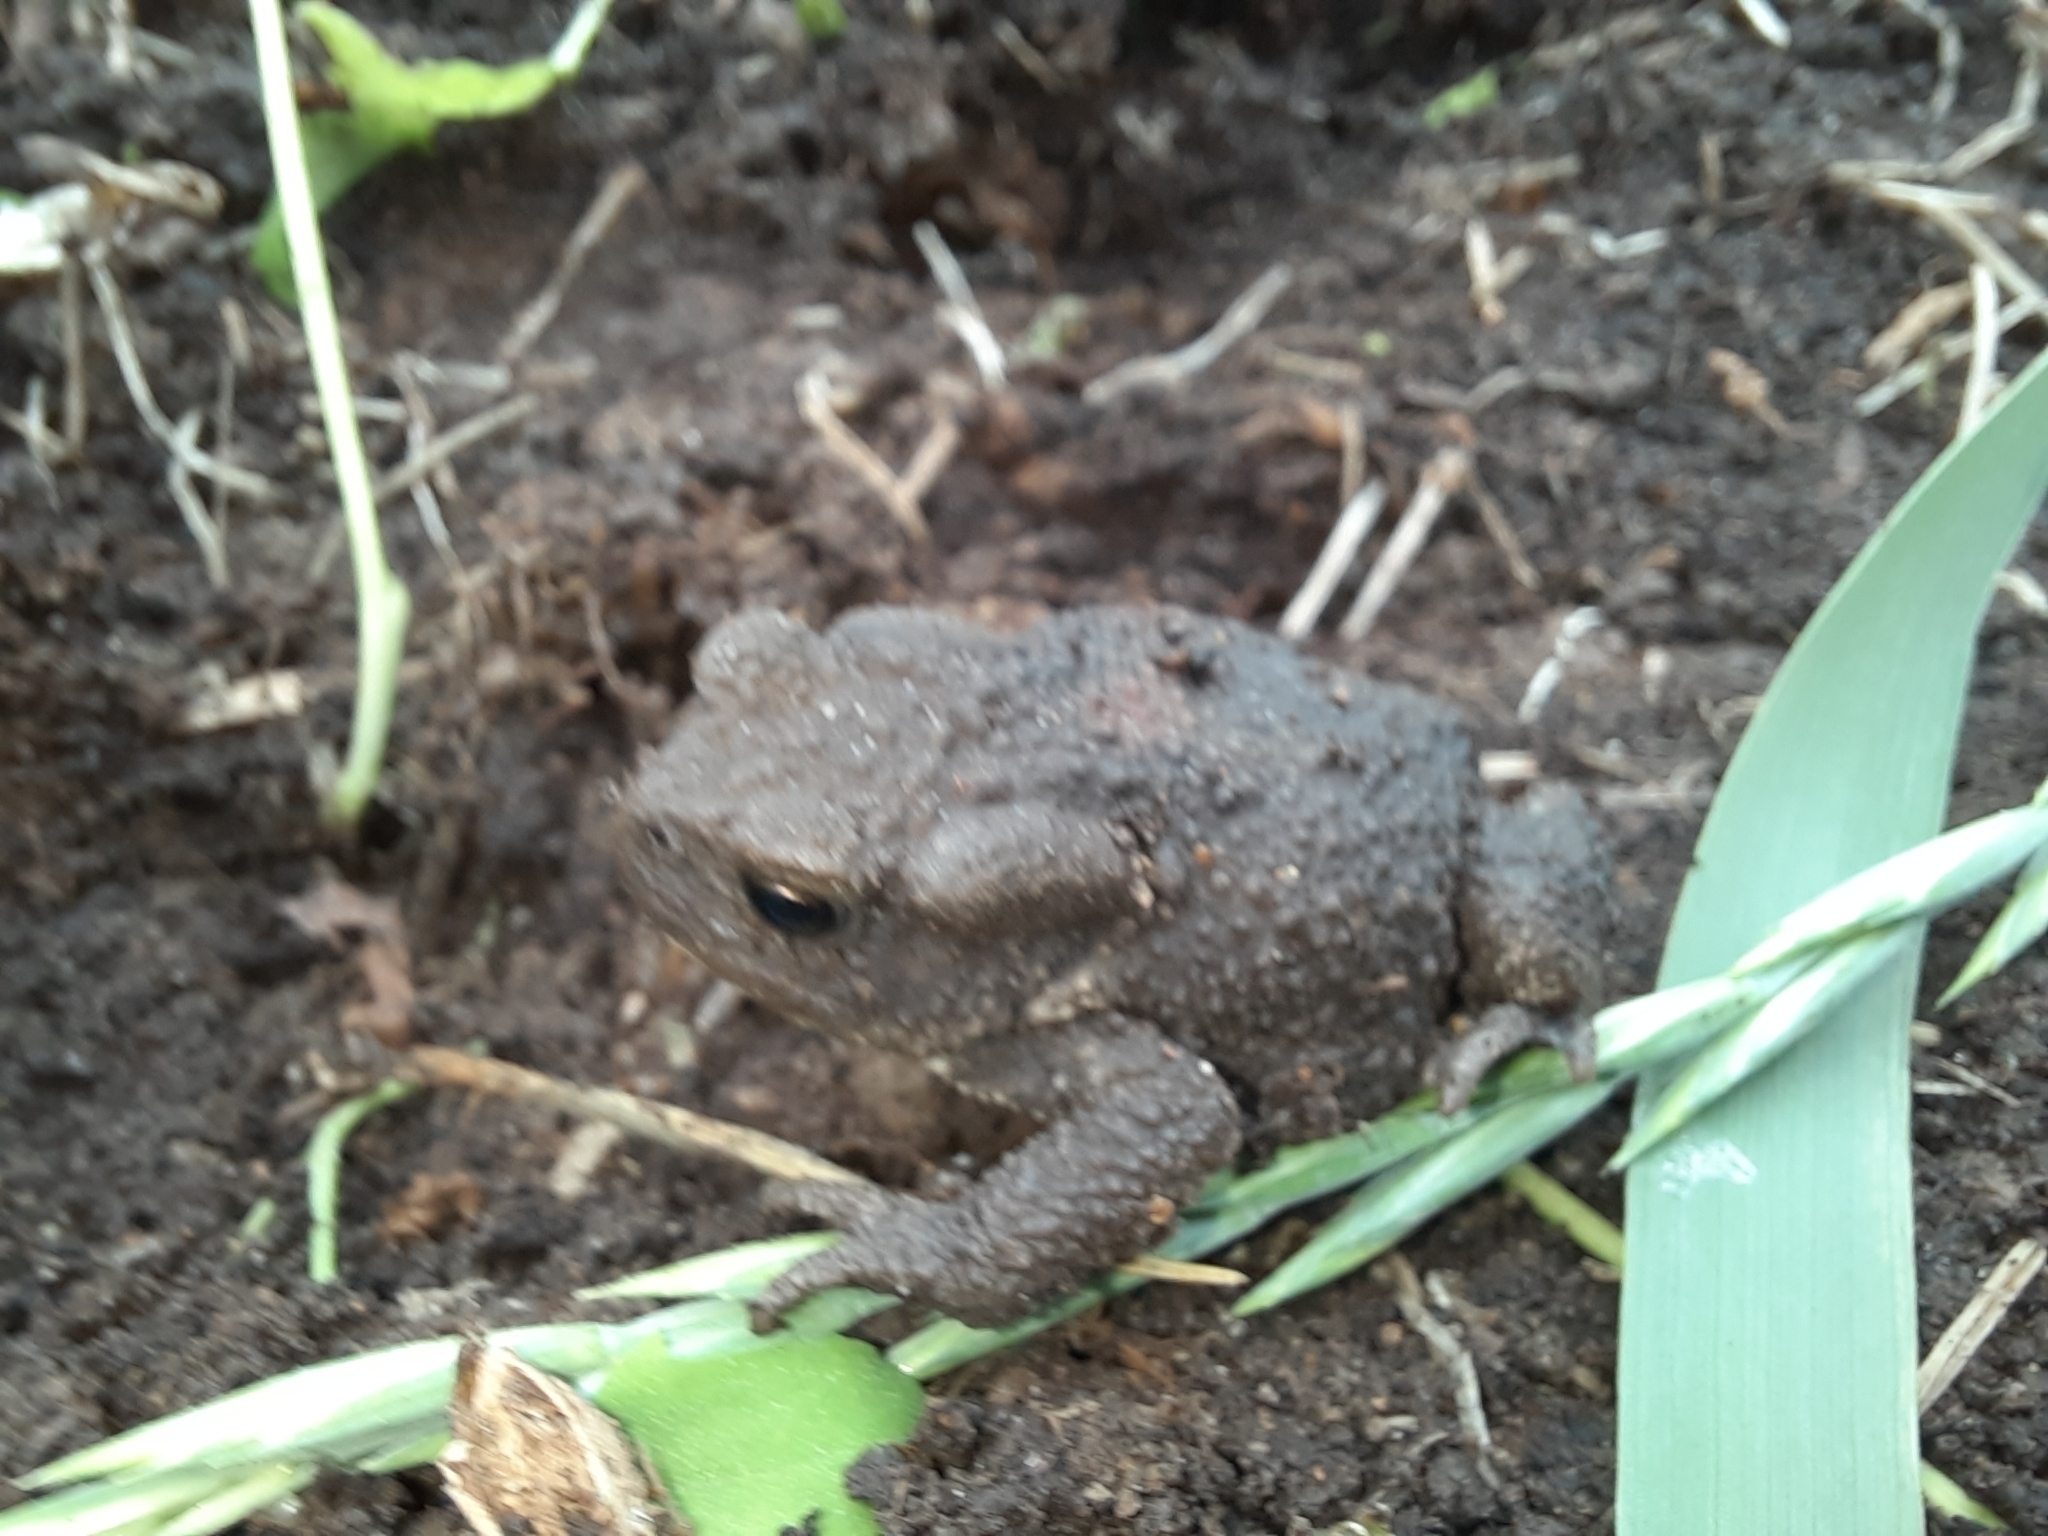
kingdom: Animalia
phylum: Chordata
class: Amphibia
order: Anura
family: Bufonidae
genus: Bufo
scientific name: Bufo bufo
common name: Common toad
